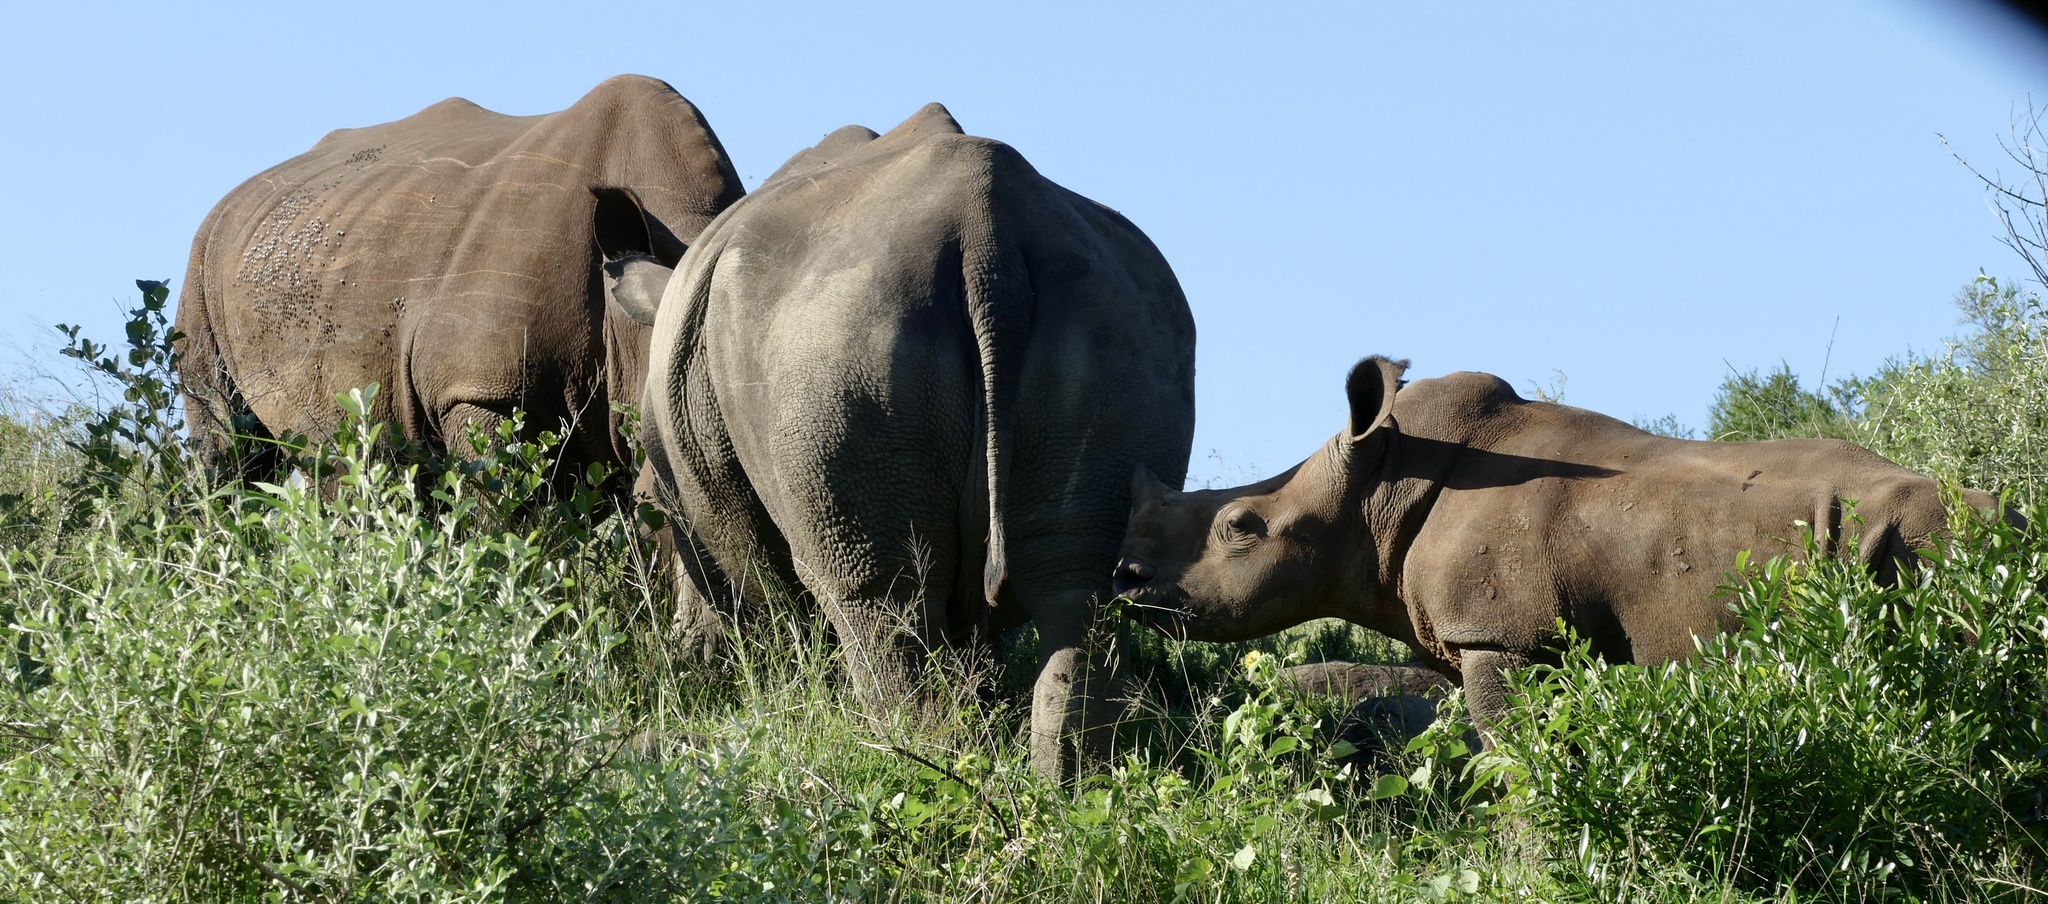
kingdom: Animalia
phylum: Chordata
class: Mammalia
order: Perissodactyla
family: Rhinocerotidae
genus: Ceratotherium
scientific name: Ceratotherium simum
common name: White rhinoceros
